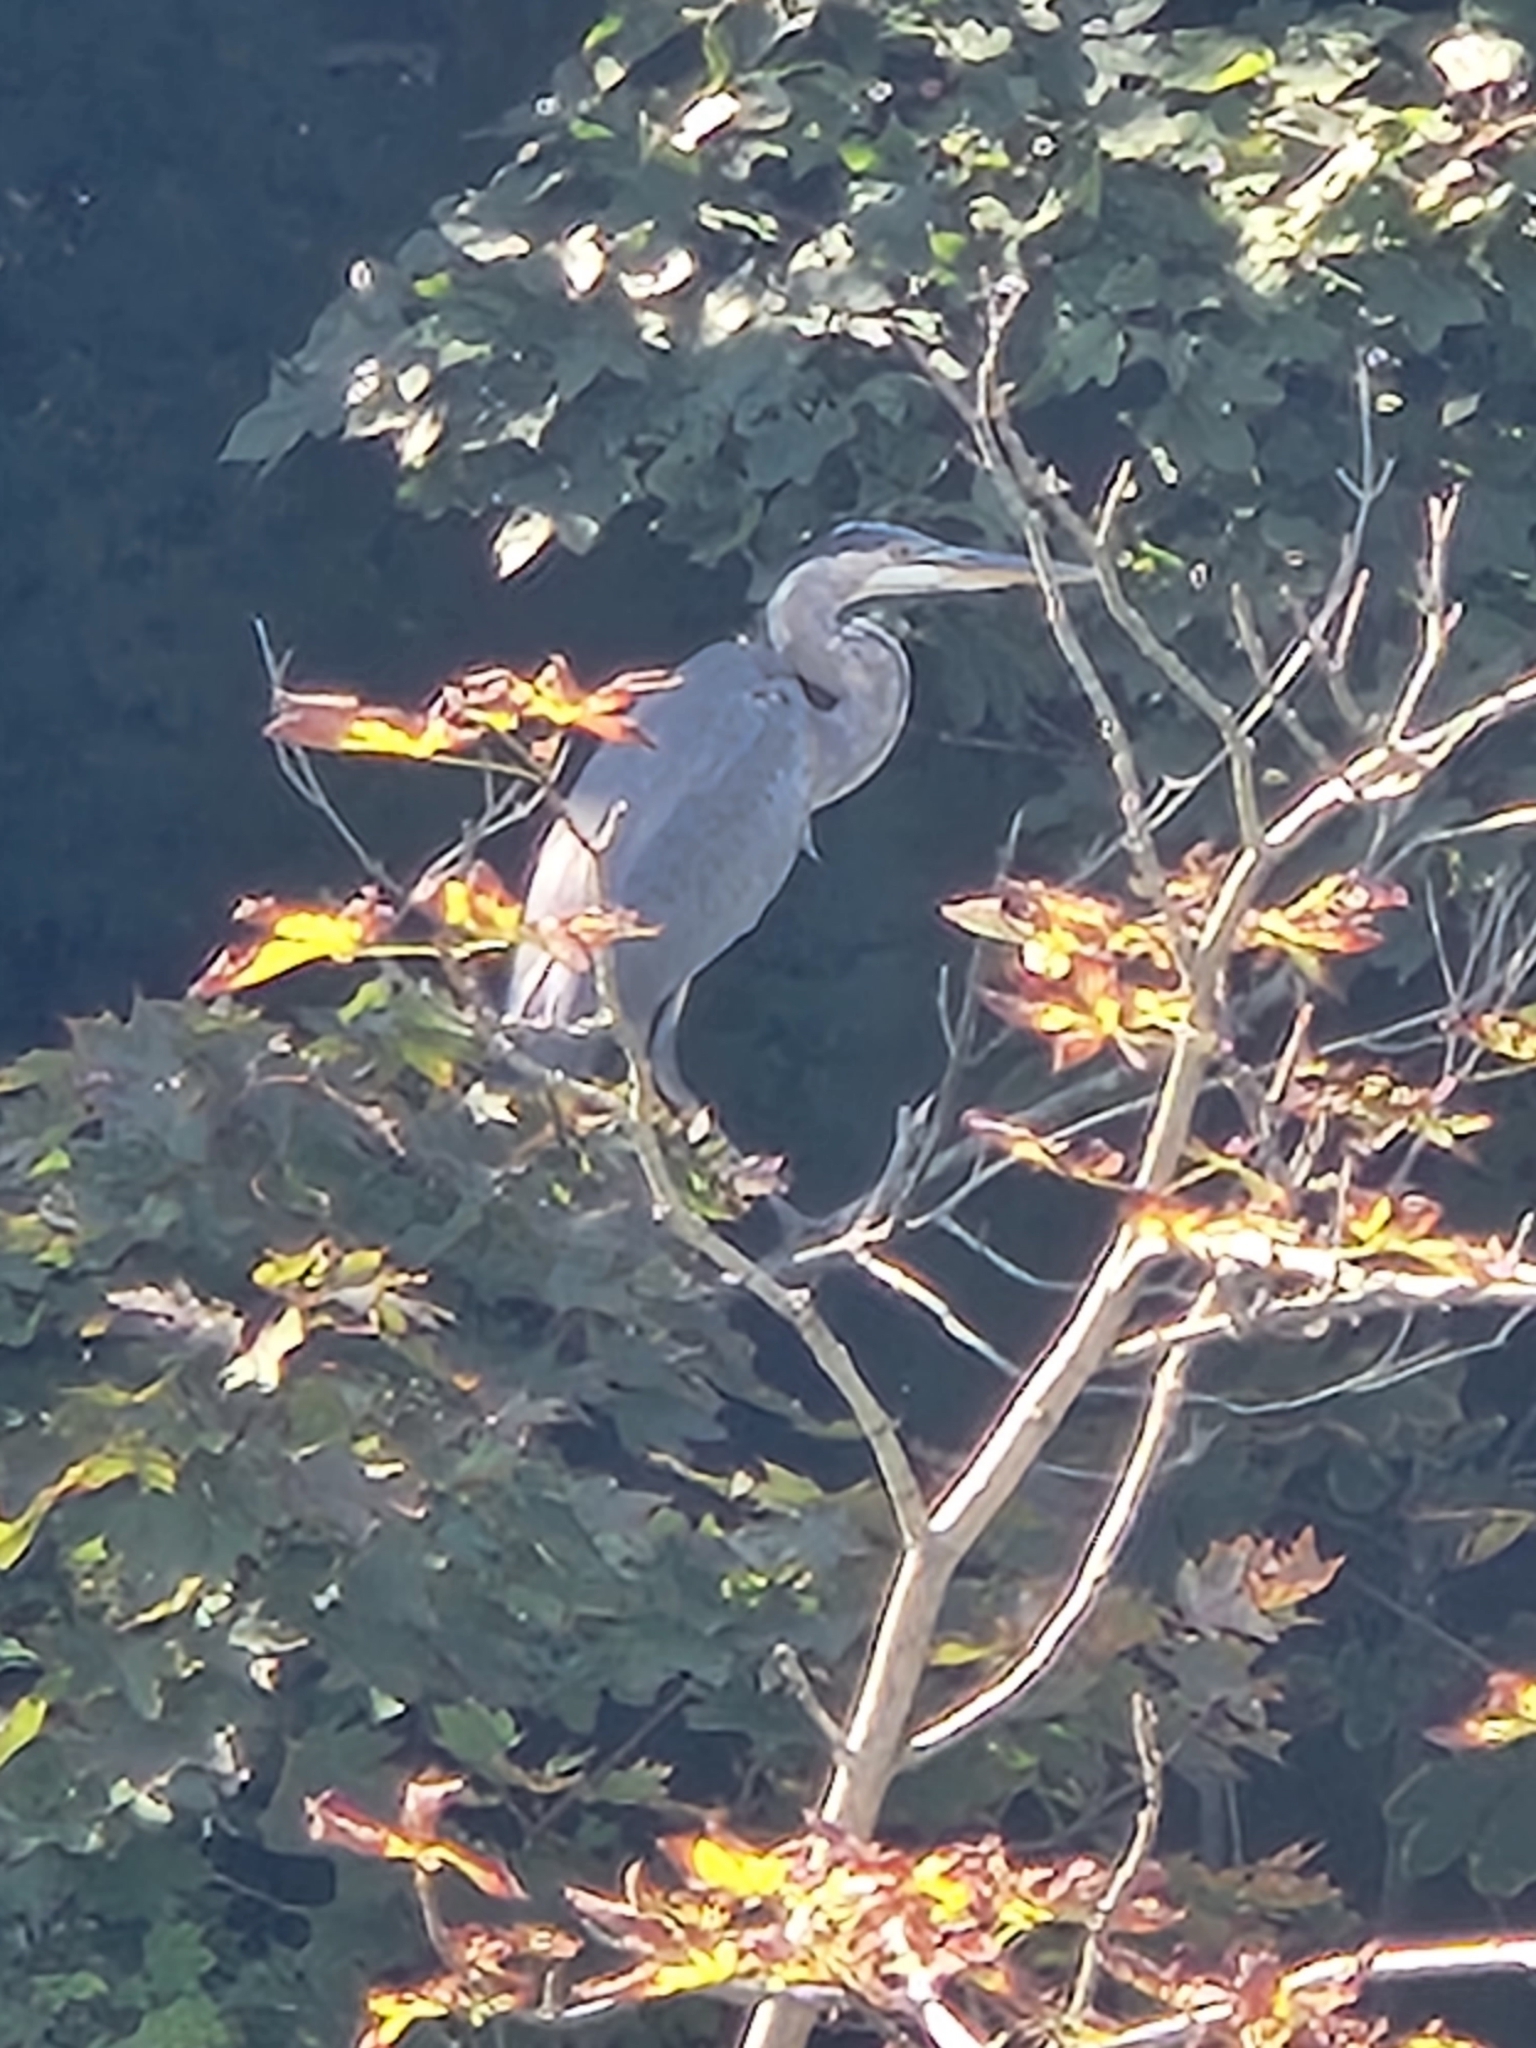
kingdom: Animalia
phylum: Chordata
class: Aves
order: Pelecaniformes
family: Ardeidae
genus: Ardea
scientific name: Ardea herodias
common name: Great blue heron
